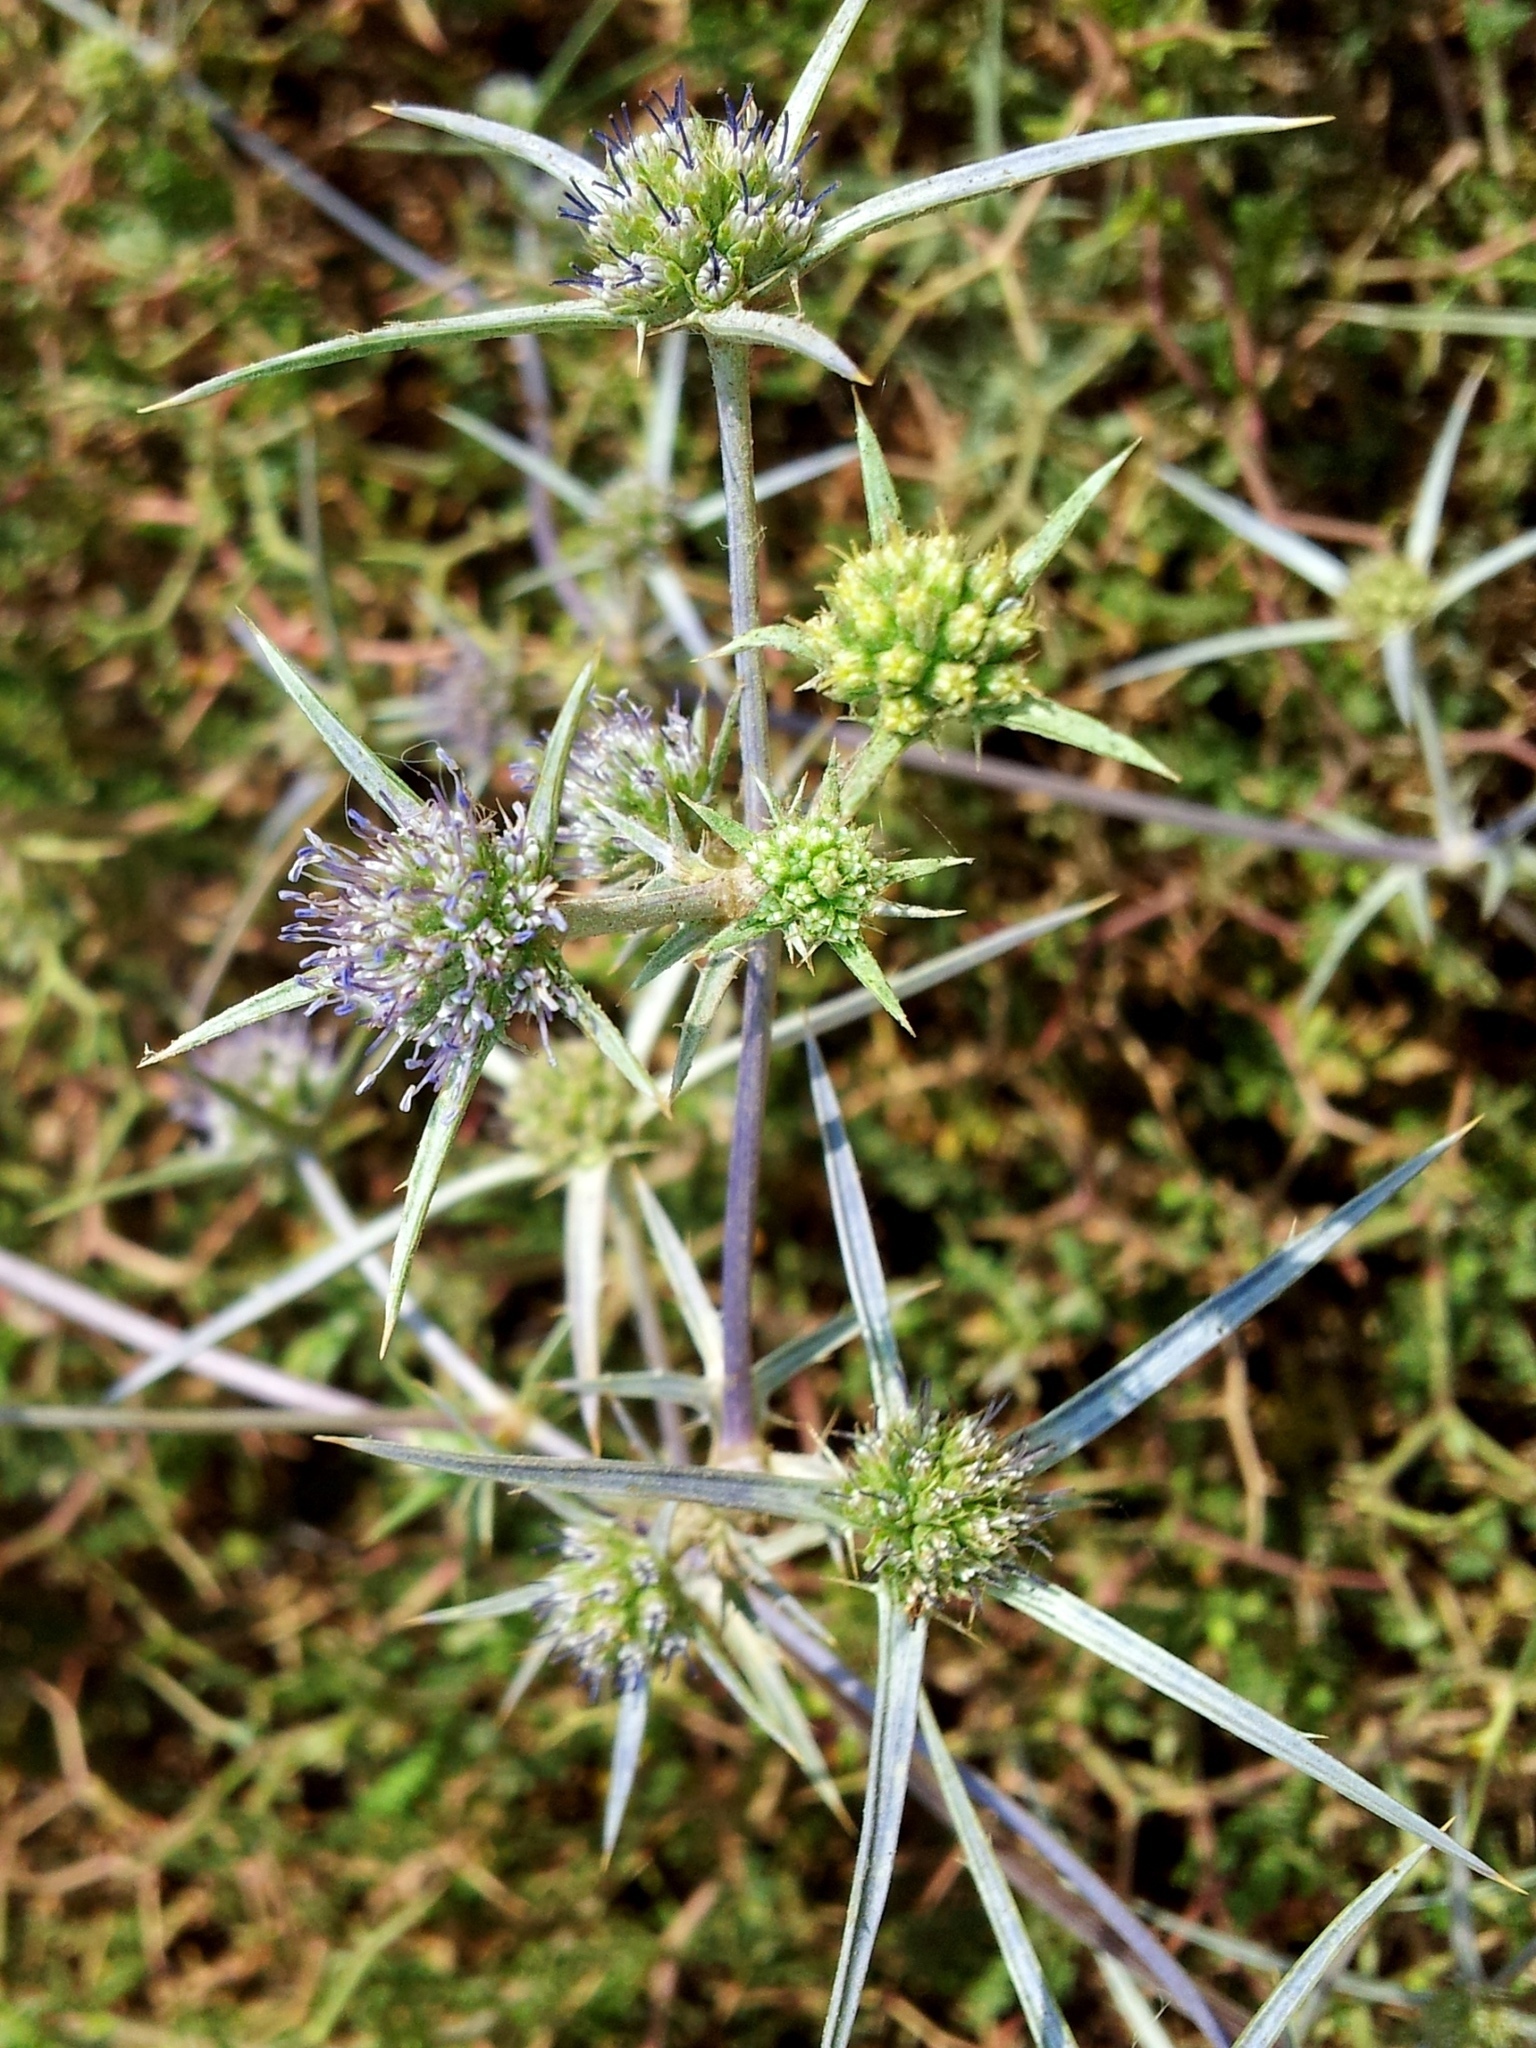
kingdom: Plantae
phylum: Tracheophyta
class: Magnoliopsida
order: Apiales
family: Apiaceae
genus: Eryngium
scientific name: Eryngium creticum
